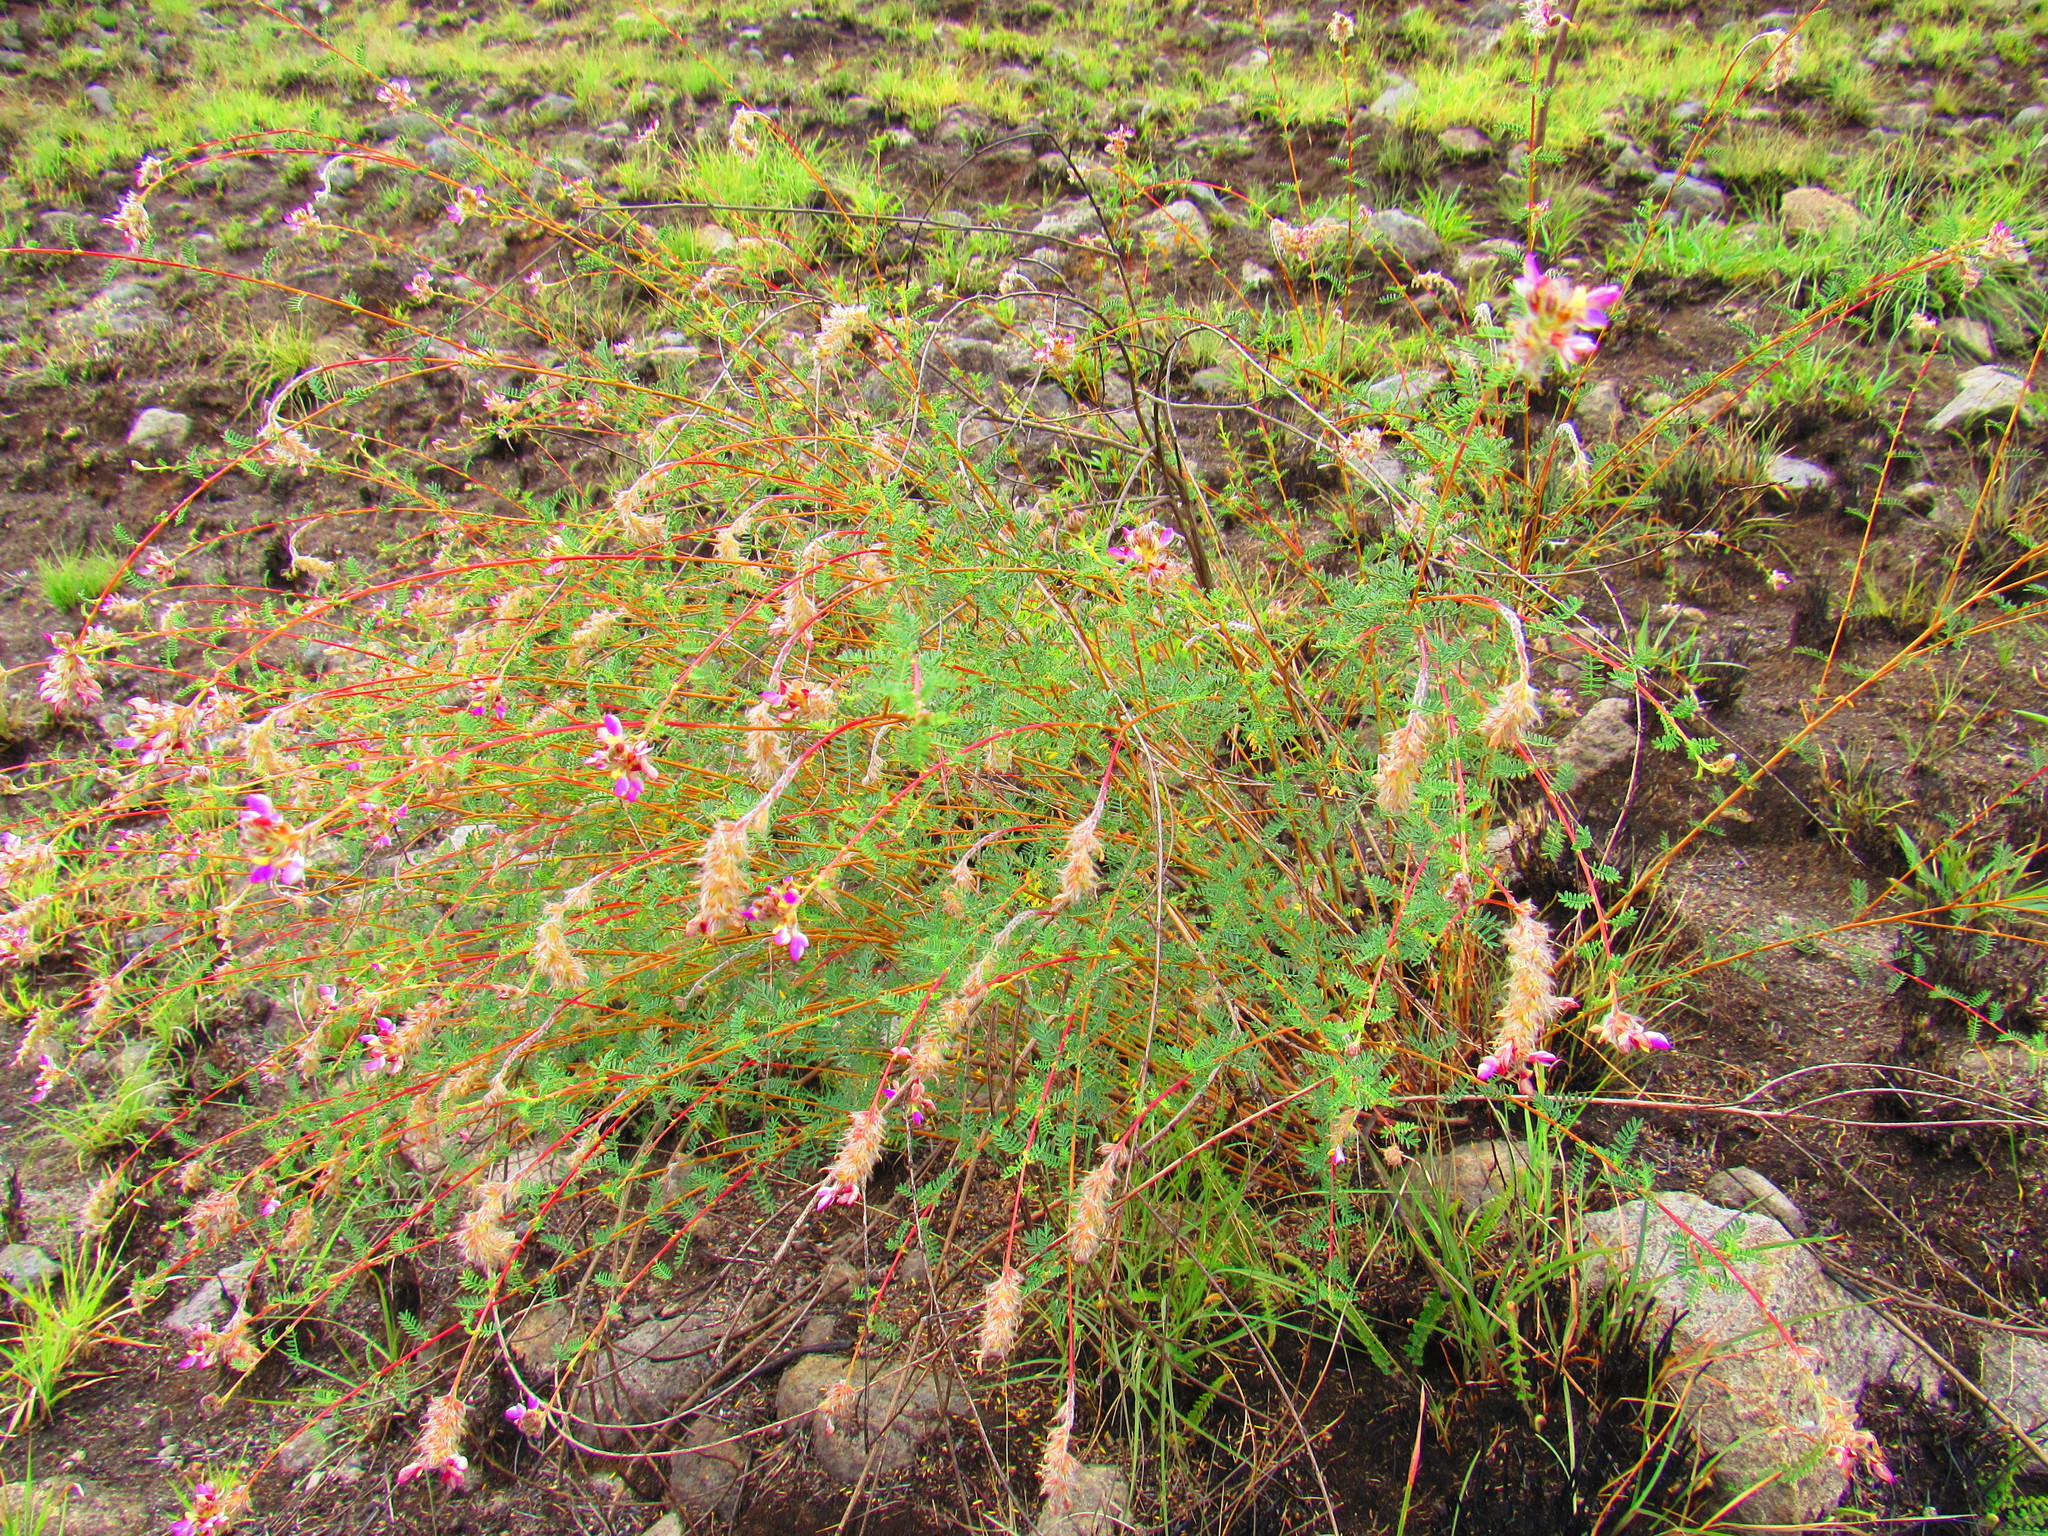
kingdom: Plantae
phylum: Tracheophyta
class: Magnoliopsida
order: Fabales
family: Fabaceae
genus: Dalea
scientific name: Dalea bicolor
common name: Silver prairie-clover
